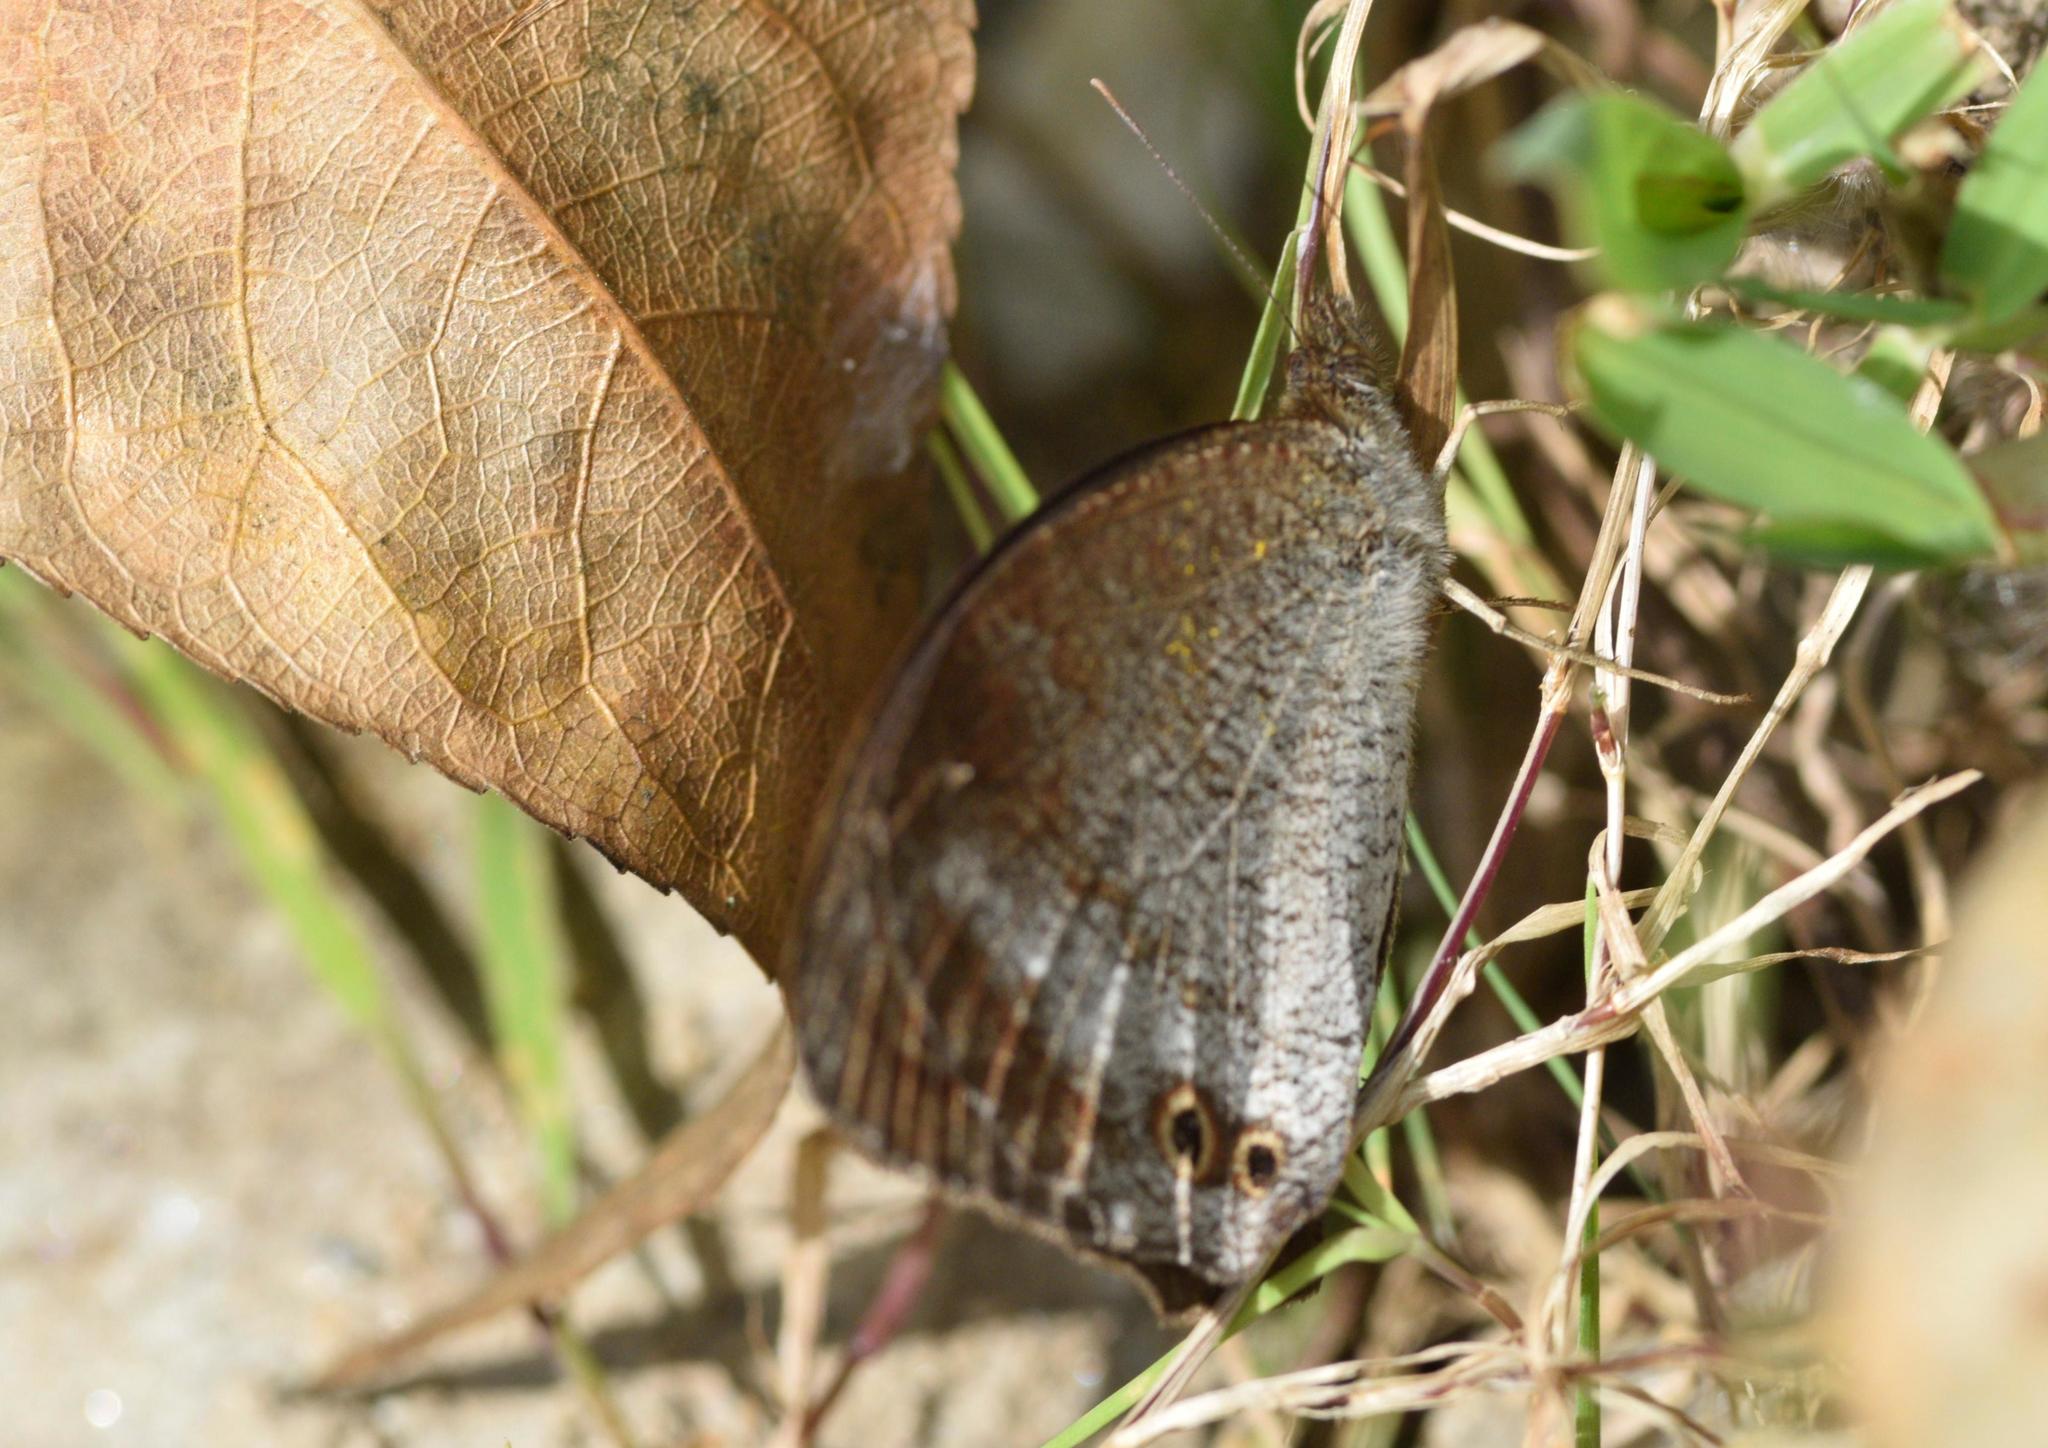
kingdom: Animalia
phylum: Arthropoda
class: Insecta
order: Lepidoptera
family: Nymphalidae
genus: Callerebia
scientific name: Callerebia annada
